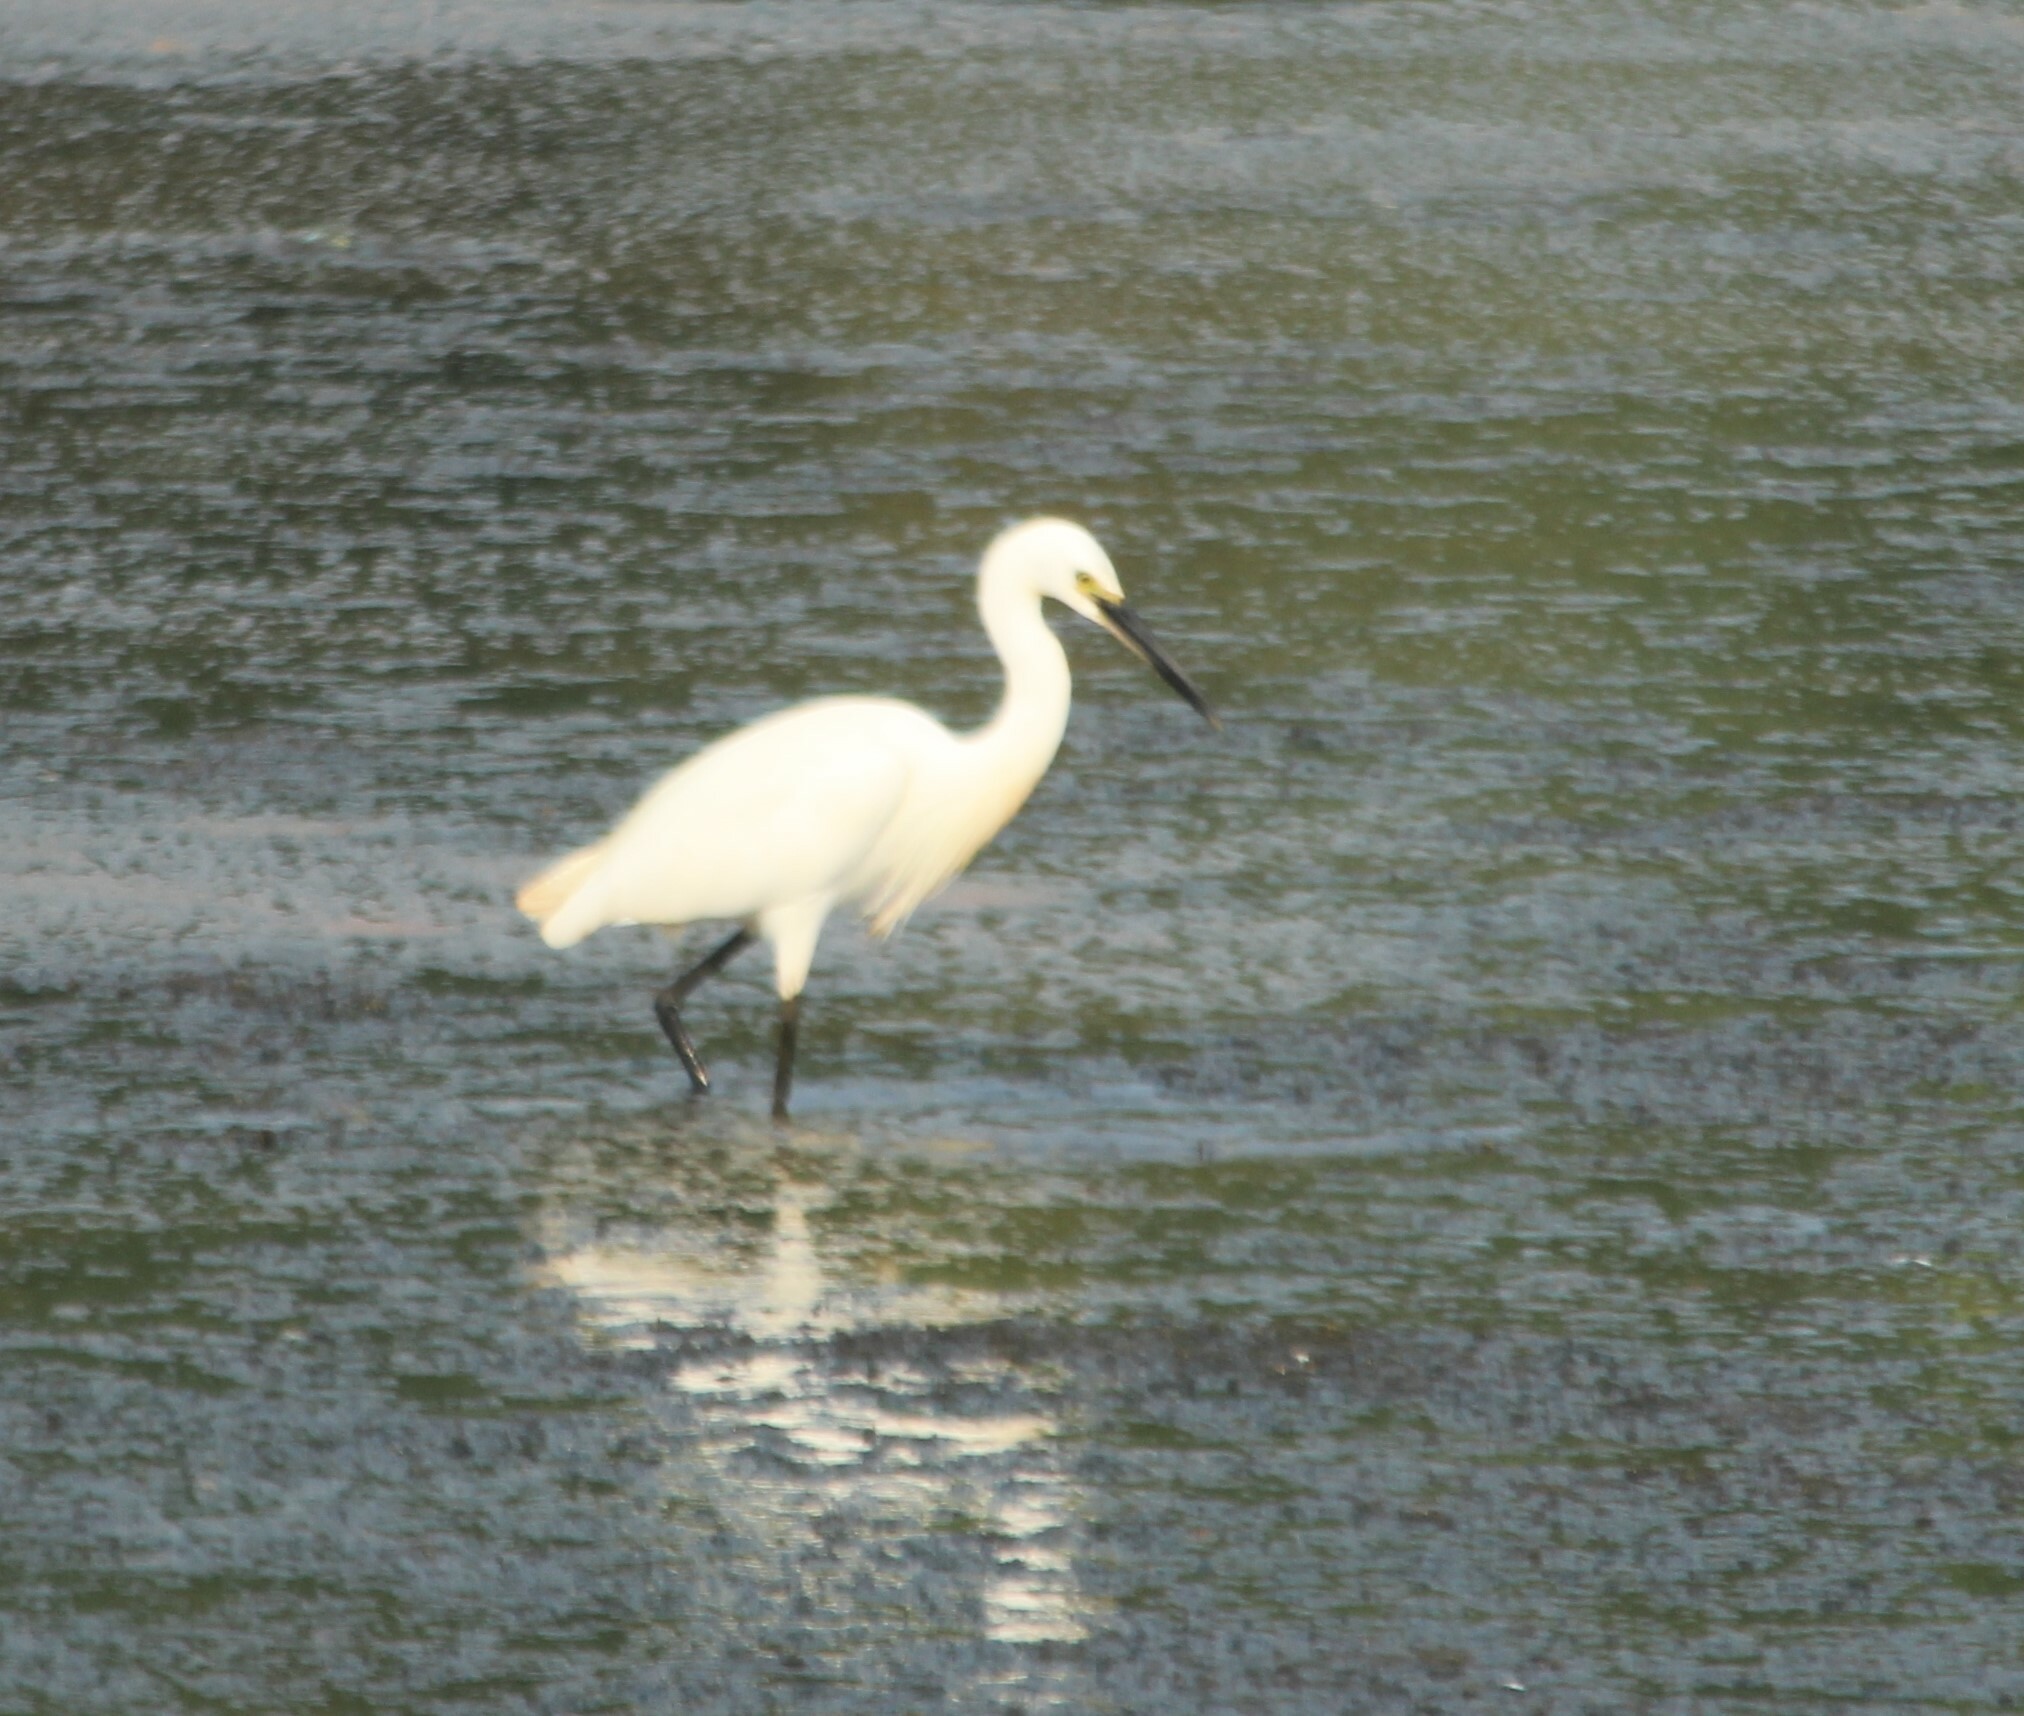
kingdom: Animalia
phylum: Chordata
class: Aves
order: Pelecaniformes
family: Ardeidae
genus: Egretta
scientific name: Egretta garzetta
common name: Little egret
